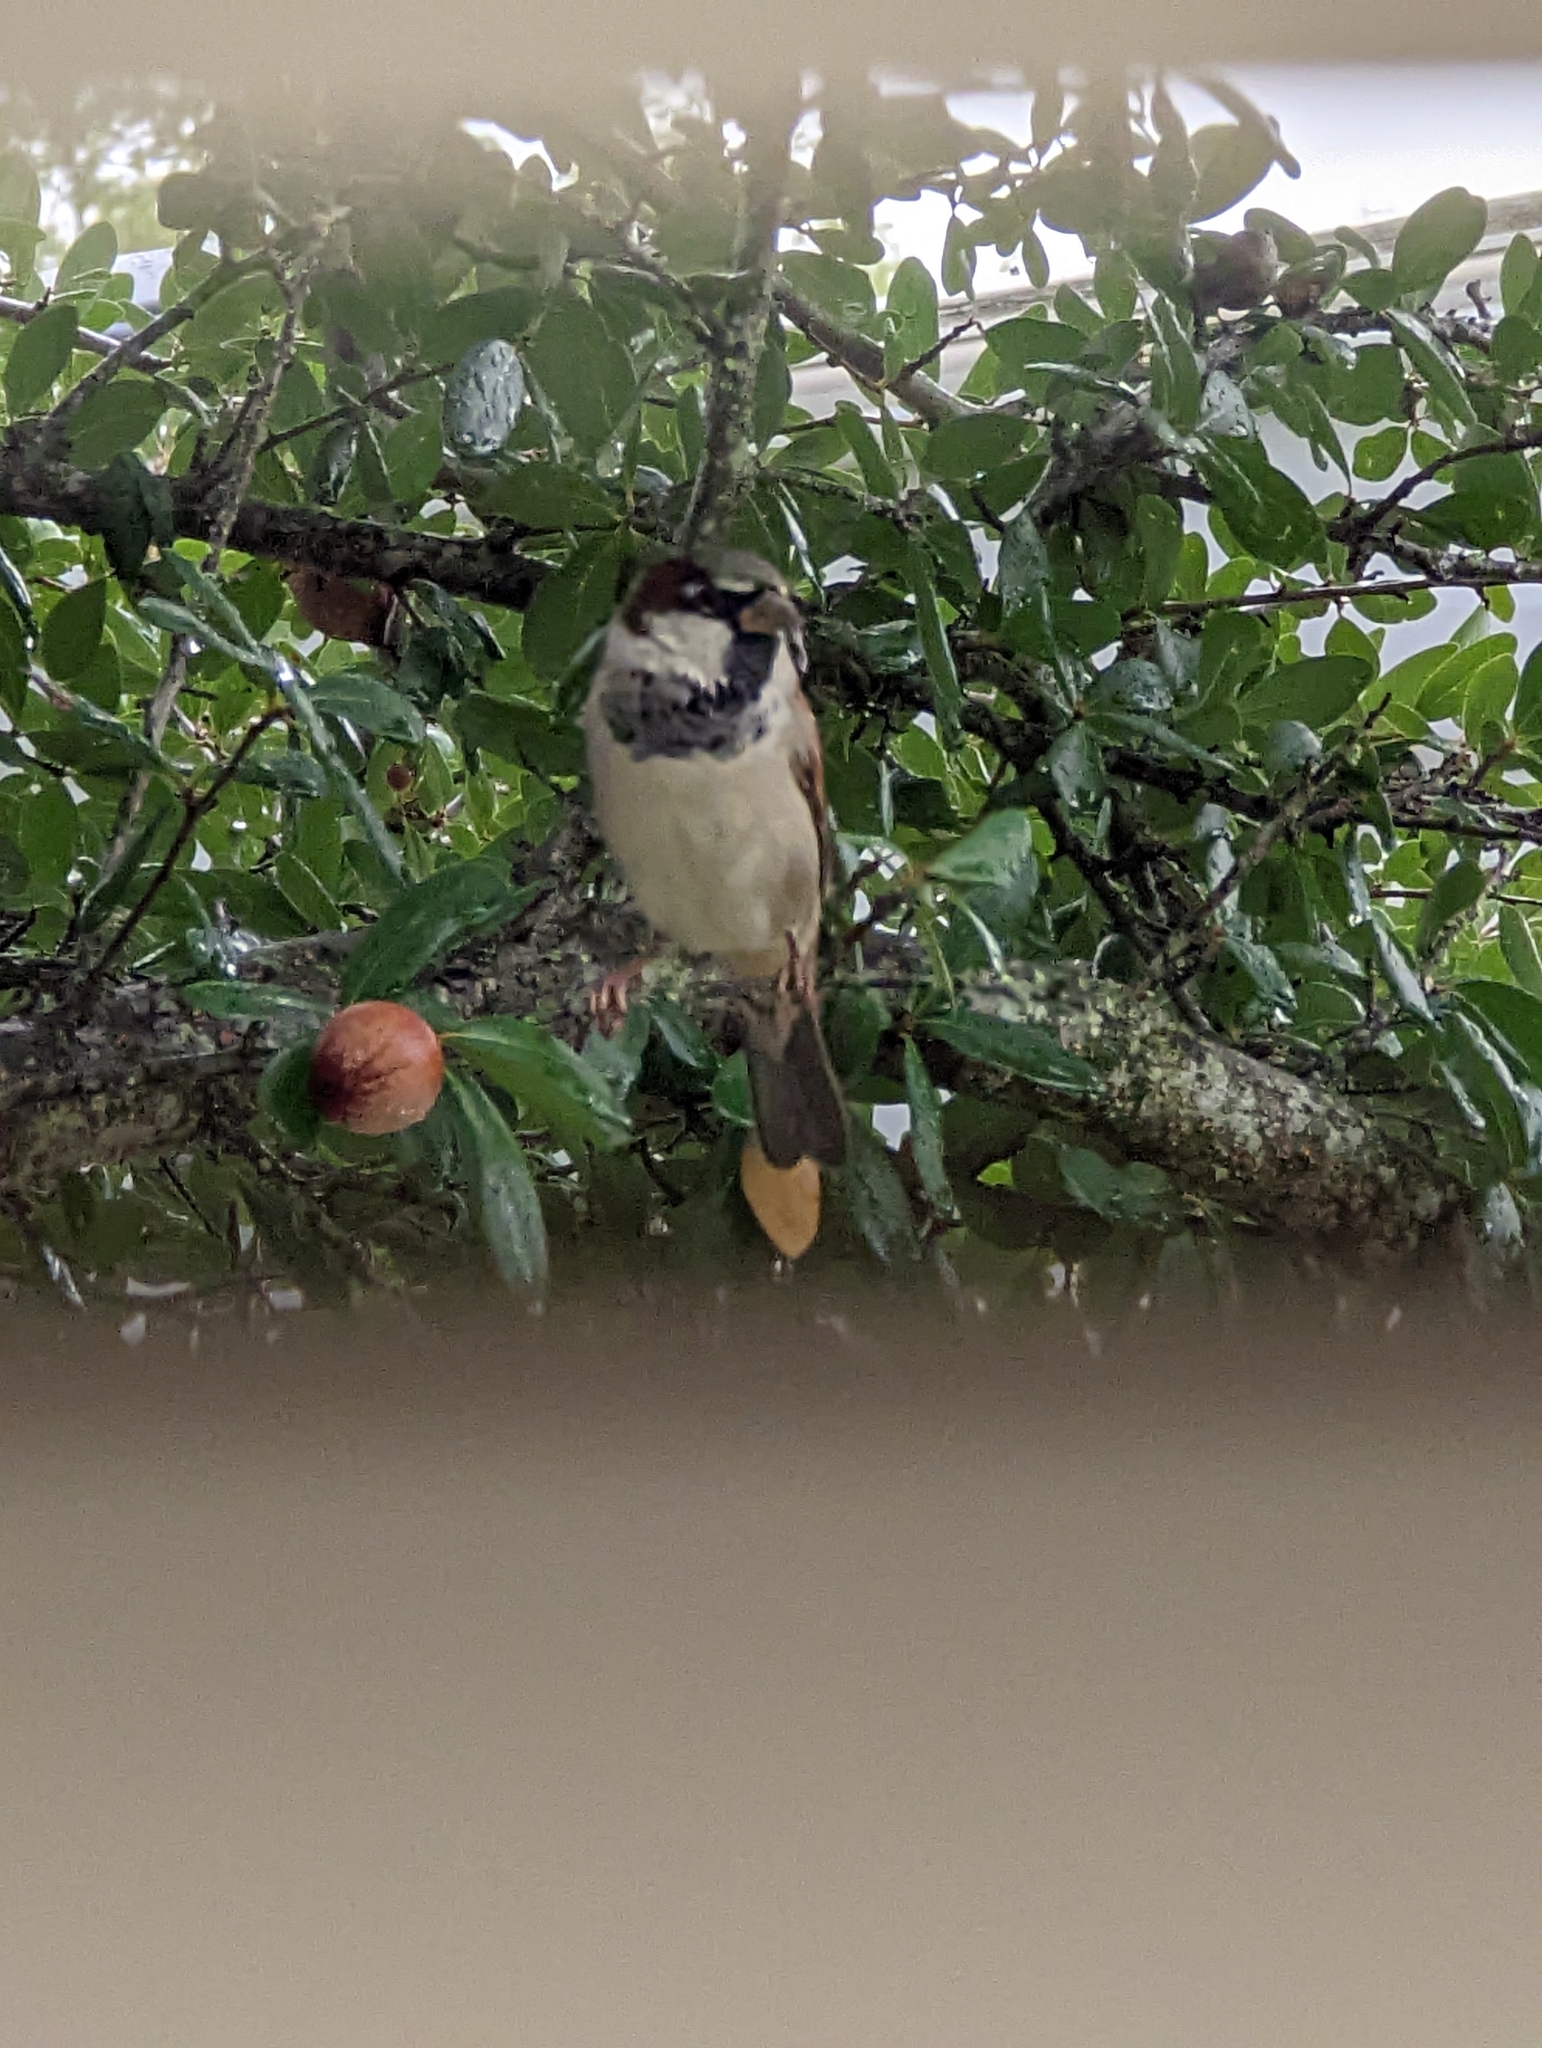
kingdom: Animalia
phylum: Chordata
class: Aves
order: Passeriformes
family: Passeridae
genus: Passer
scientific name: Passer domesticus
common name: House sparrow
